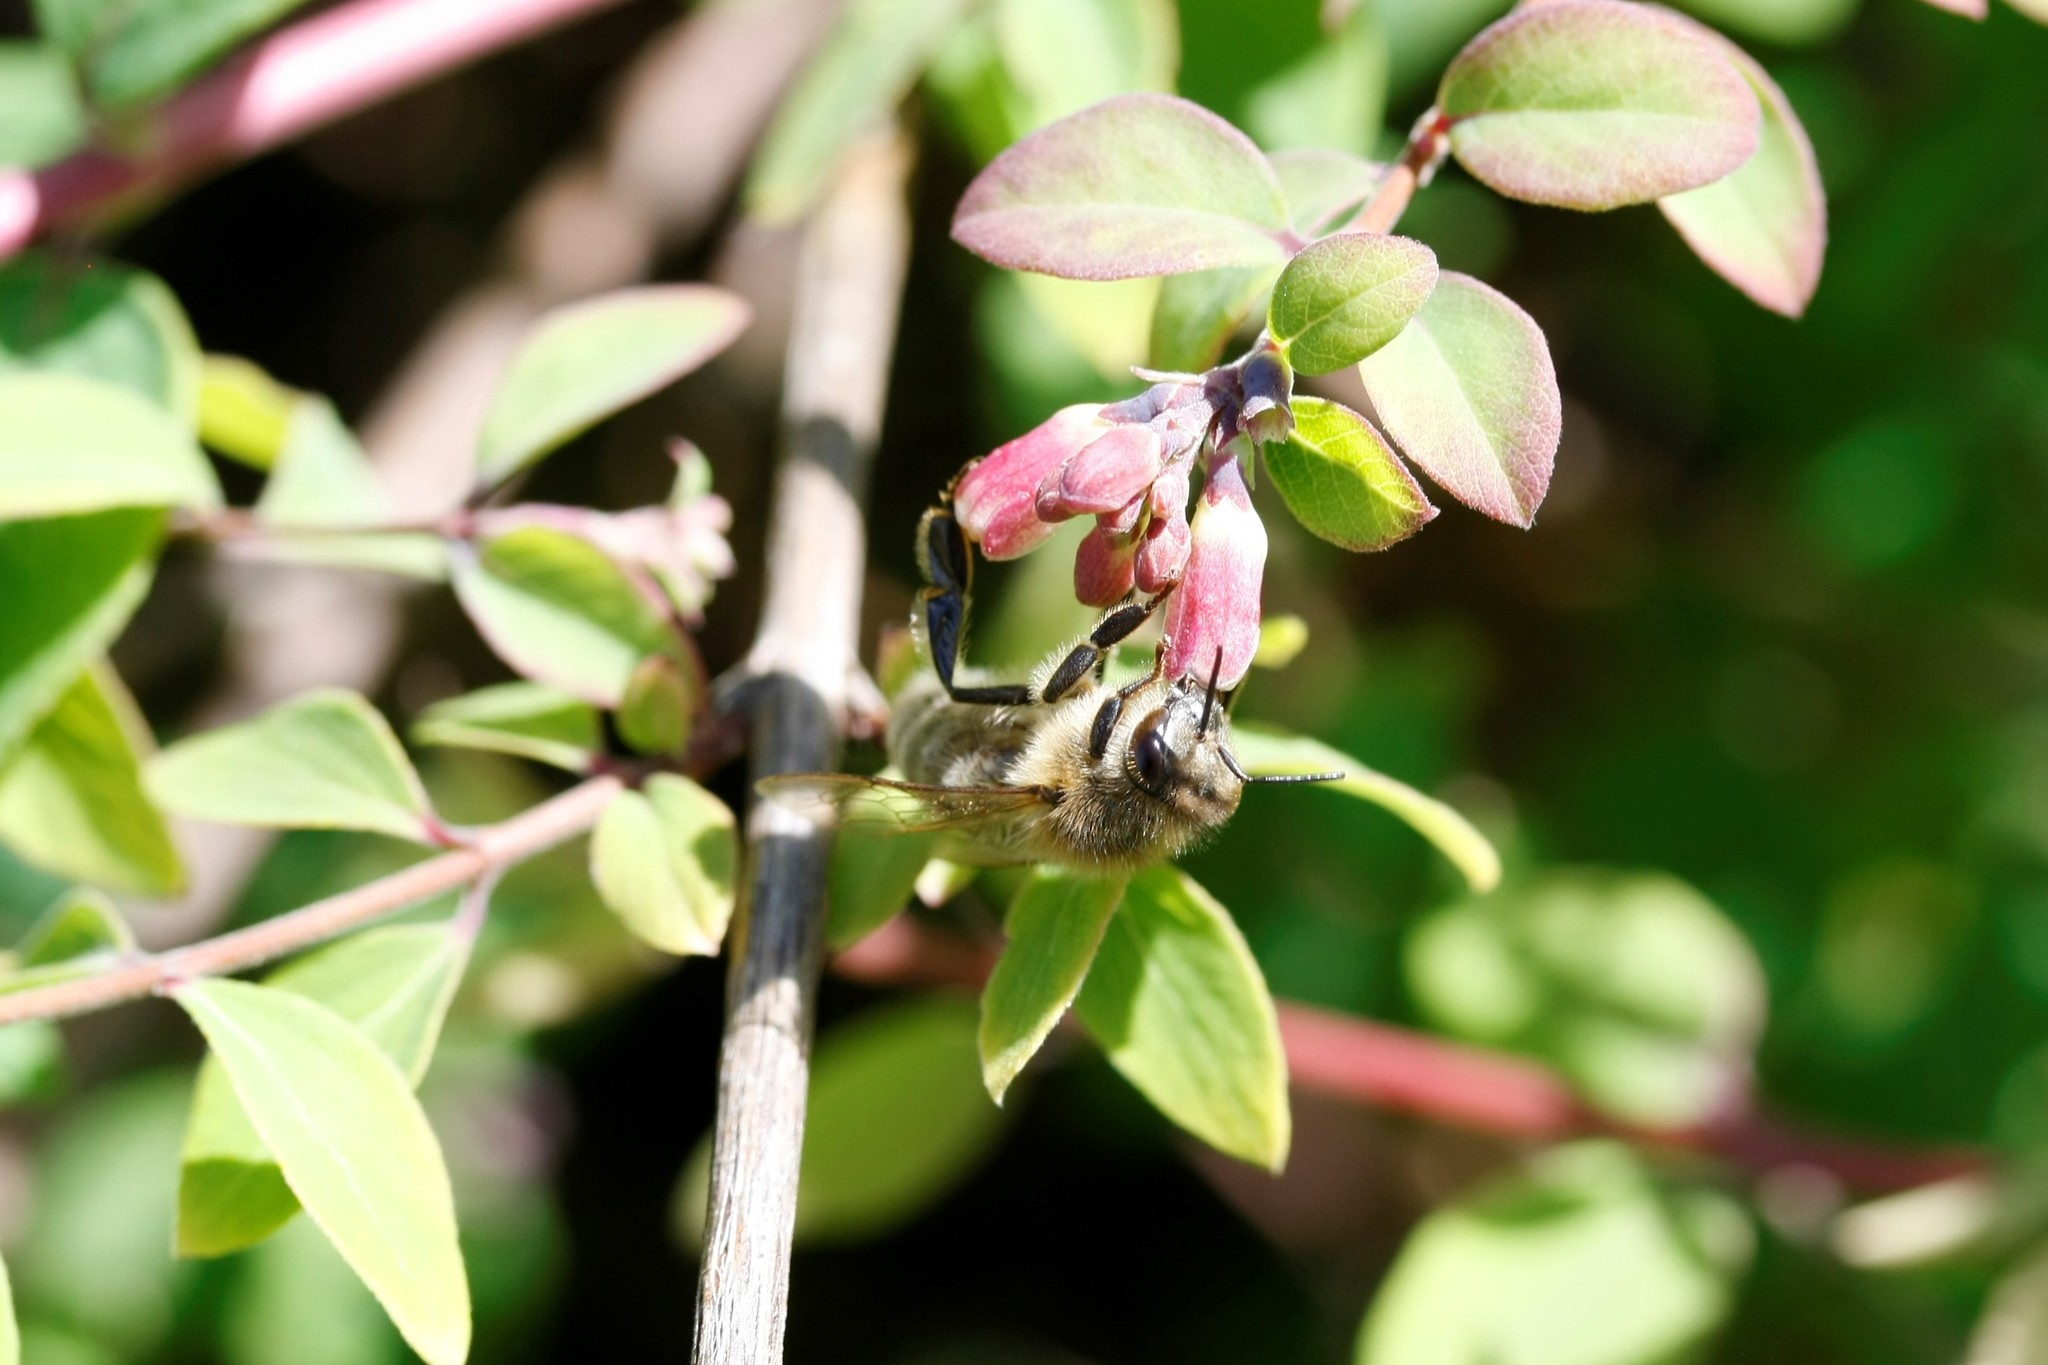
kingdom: Animalia
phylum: Arthropoda
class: Insecta
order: Hymenoptera
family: Apidae
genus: Apis
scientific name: Apis mellifera
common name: Honey bee
